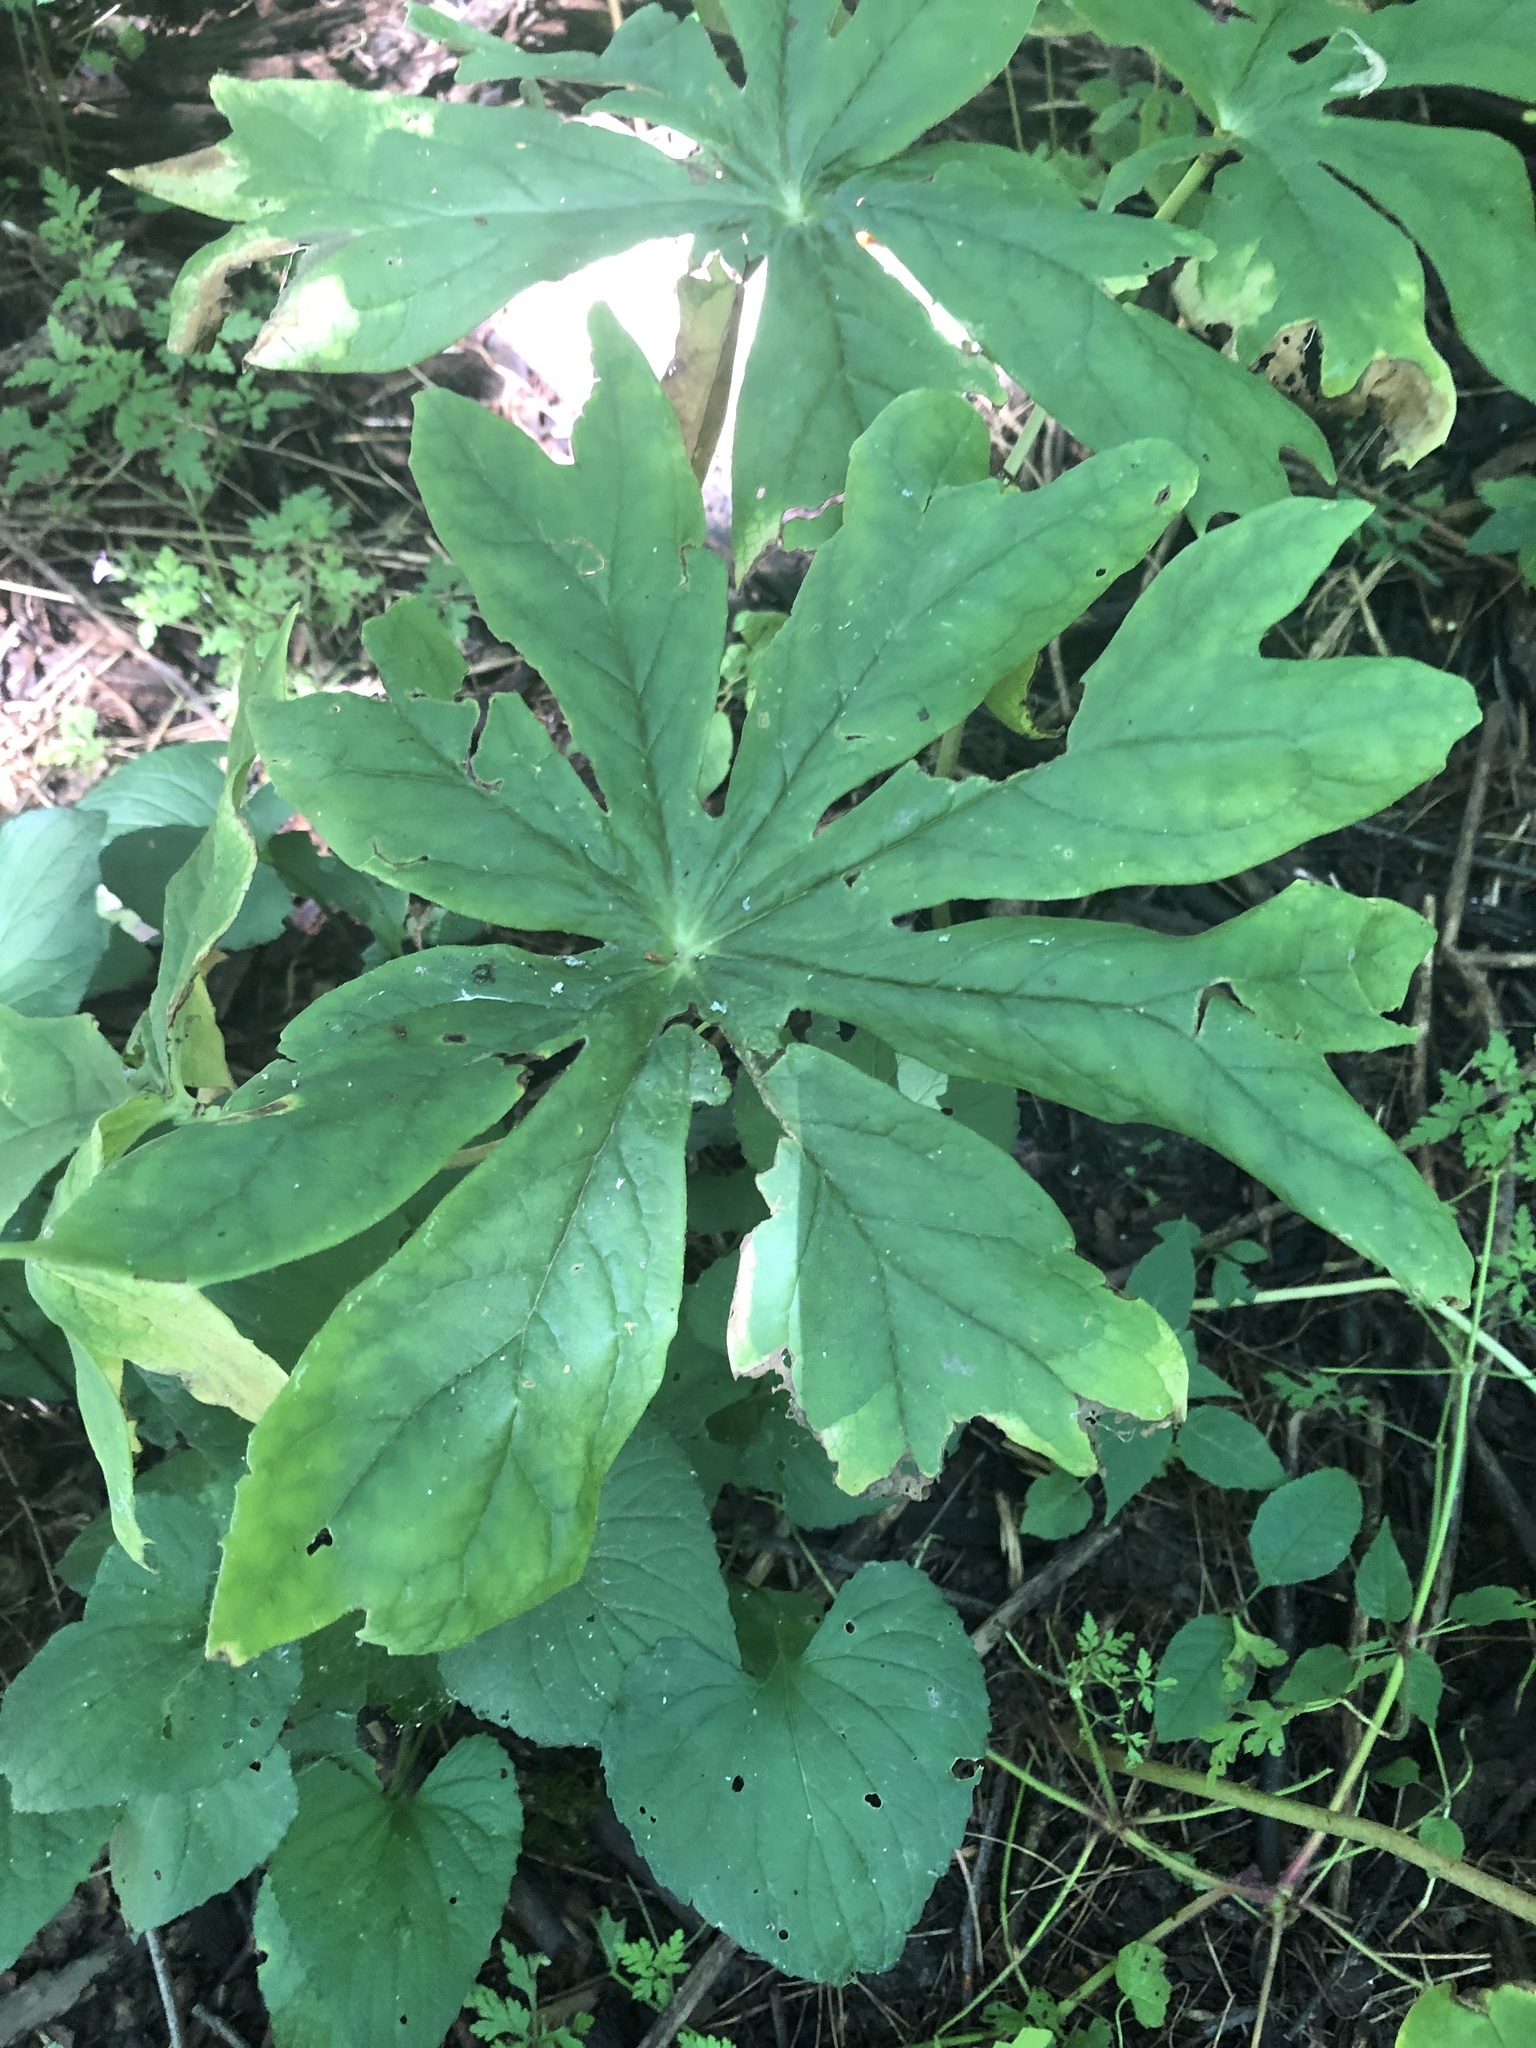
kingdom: Plantae
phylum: Tracheophyta
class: Magnoliopsida
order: Ranunculales
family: Berberidaceae
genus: Podophyllum
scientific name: Podophyllum peltatum
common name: Wild mandrake
